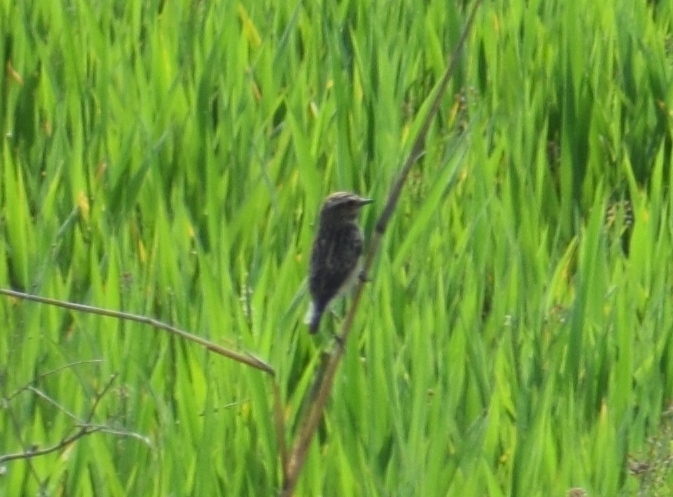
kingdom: Animalia
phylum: Chordata
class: Aves
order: Passeriformes
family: Muscicapidae
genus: Saxicola
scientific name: Saxicola rubetra
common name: Whinchat
